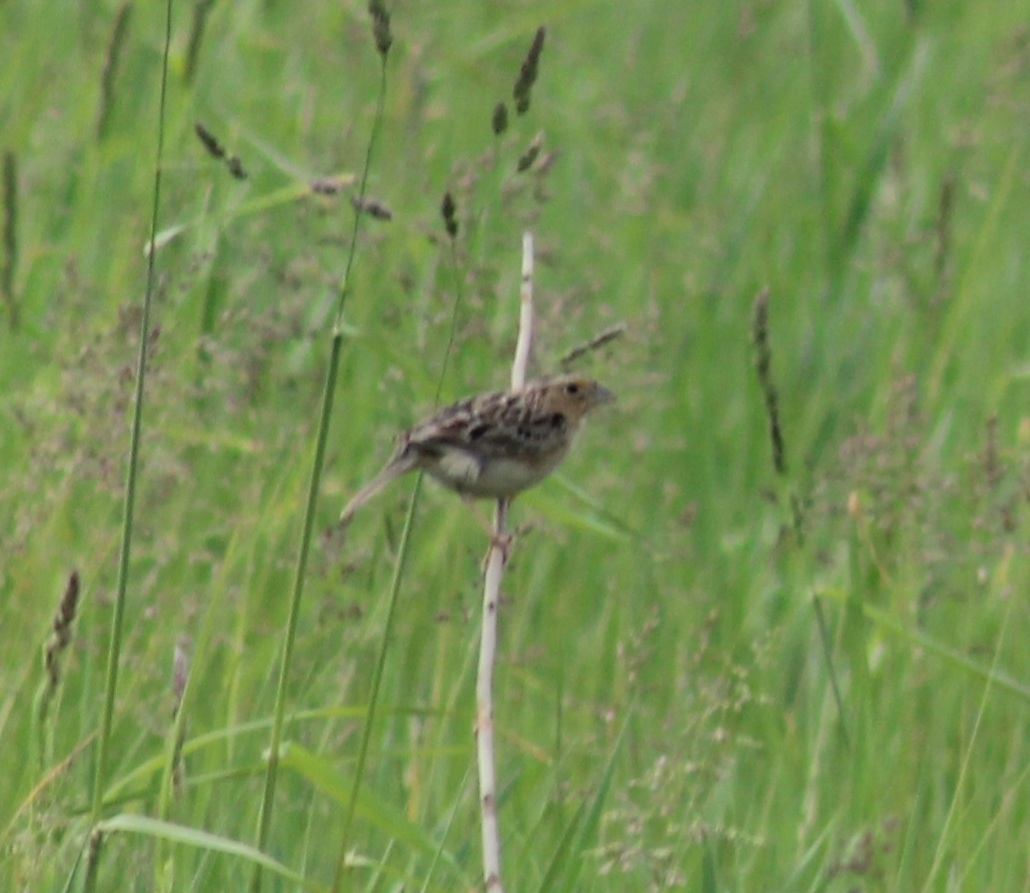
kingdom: Animalia
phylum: Chordata
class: Aves
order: Passeriformes
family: Passerellidae
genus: Ammodramus
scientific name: Ammodramus savannarum
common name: Grasshopper sparrow
